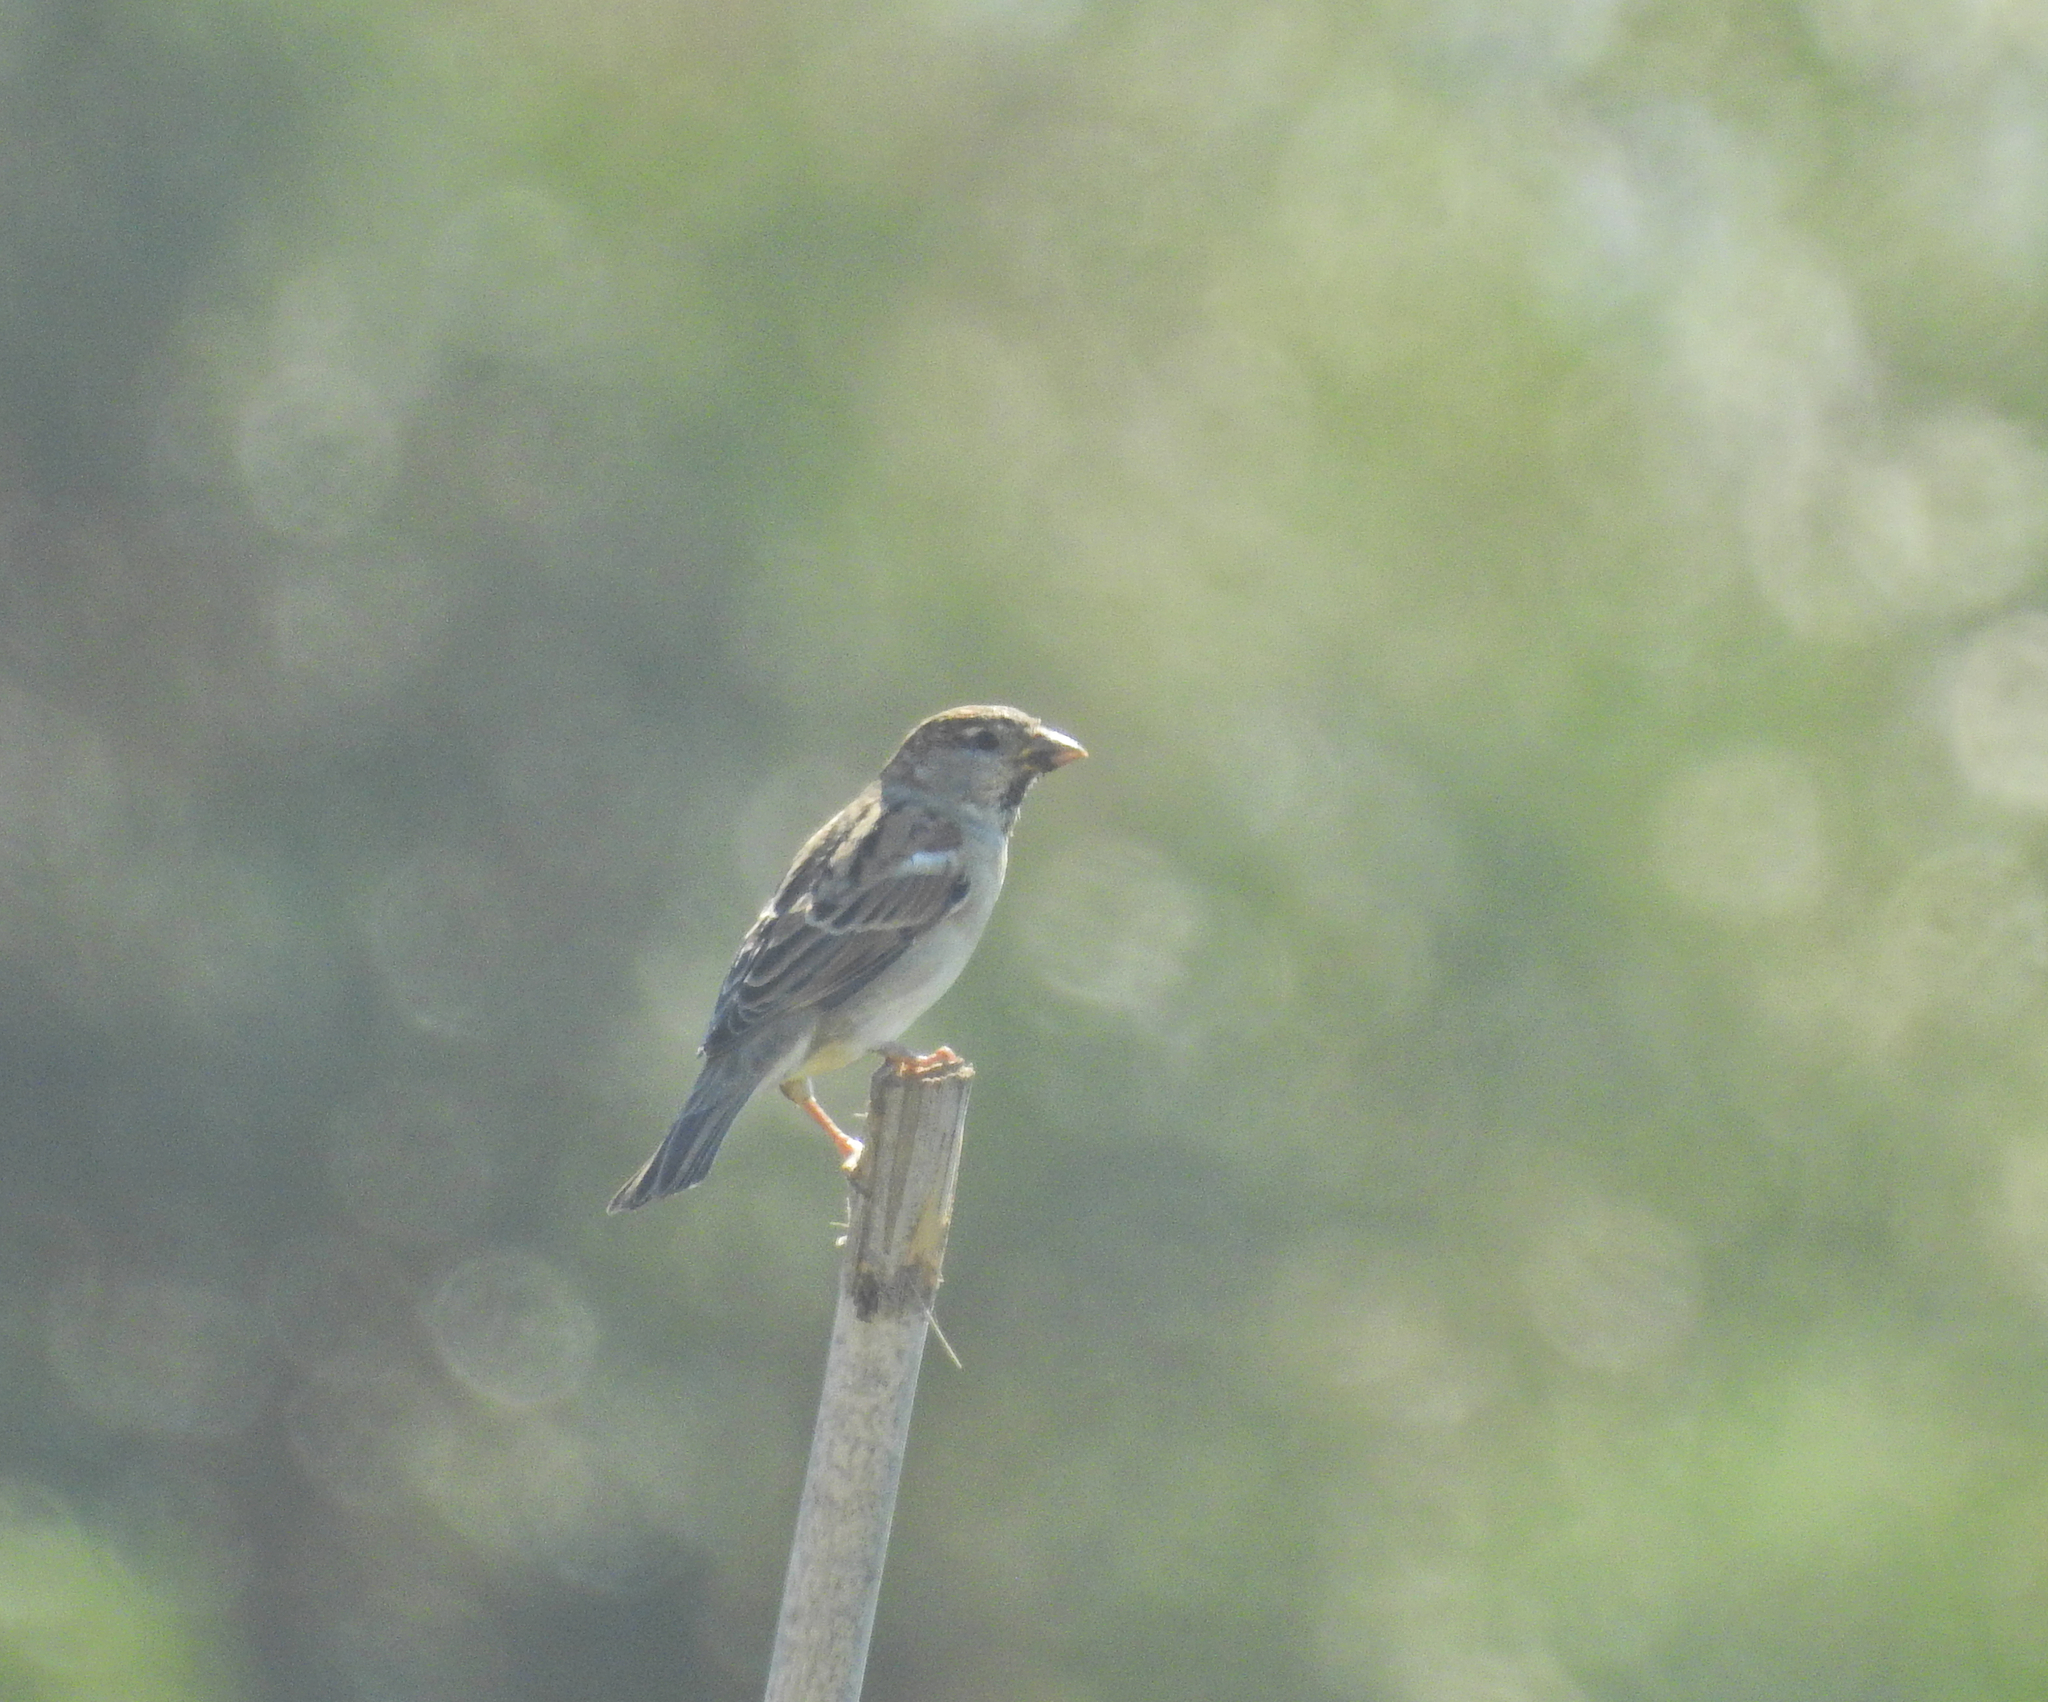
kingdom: Animalia
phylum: Chordata
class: Aves
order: Passeriformes
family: Passeridae
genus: Passer
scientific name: Passer domesticus
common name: House sparrow
